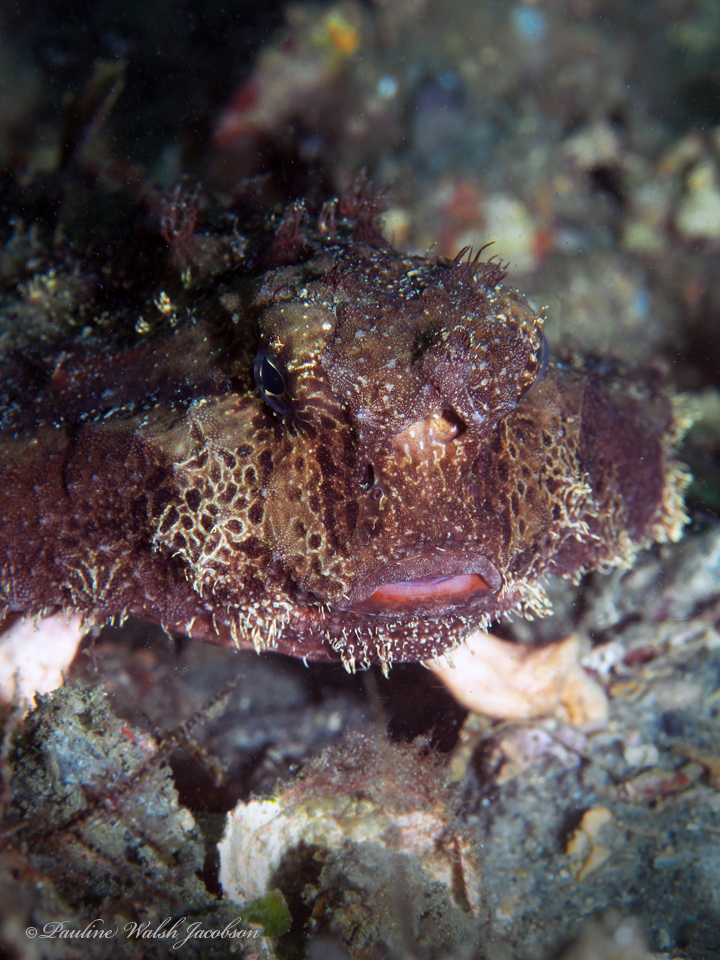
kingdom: Animalia
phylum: Chordata
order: Lophiiformes
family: Ogcocephalidae
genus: Ogcocephalus
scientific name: Ogcocephalus cubifrons
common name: Polka-dot batfish
